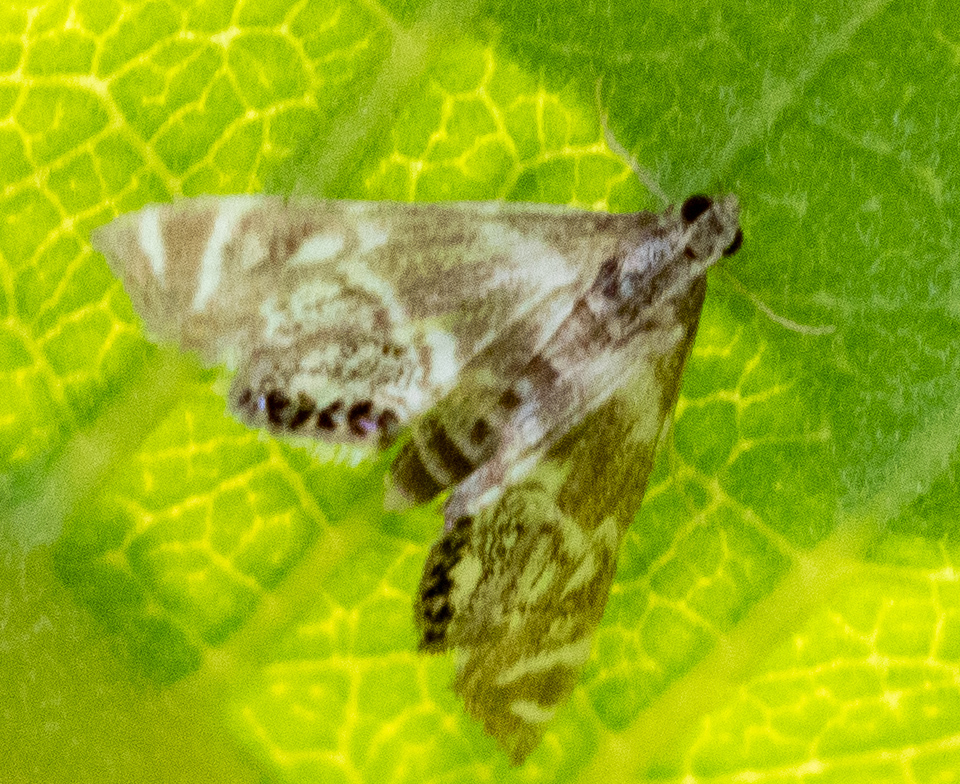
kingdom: Animalia
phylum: Arthropoda
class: Insecta
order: Lepidoptera
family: Crambidae
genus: Petrophila
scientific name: Petrophila canadensis
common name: Canadian petrophila
